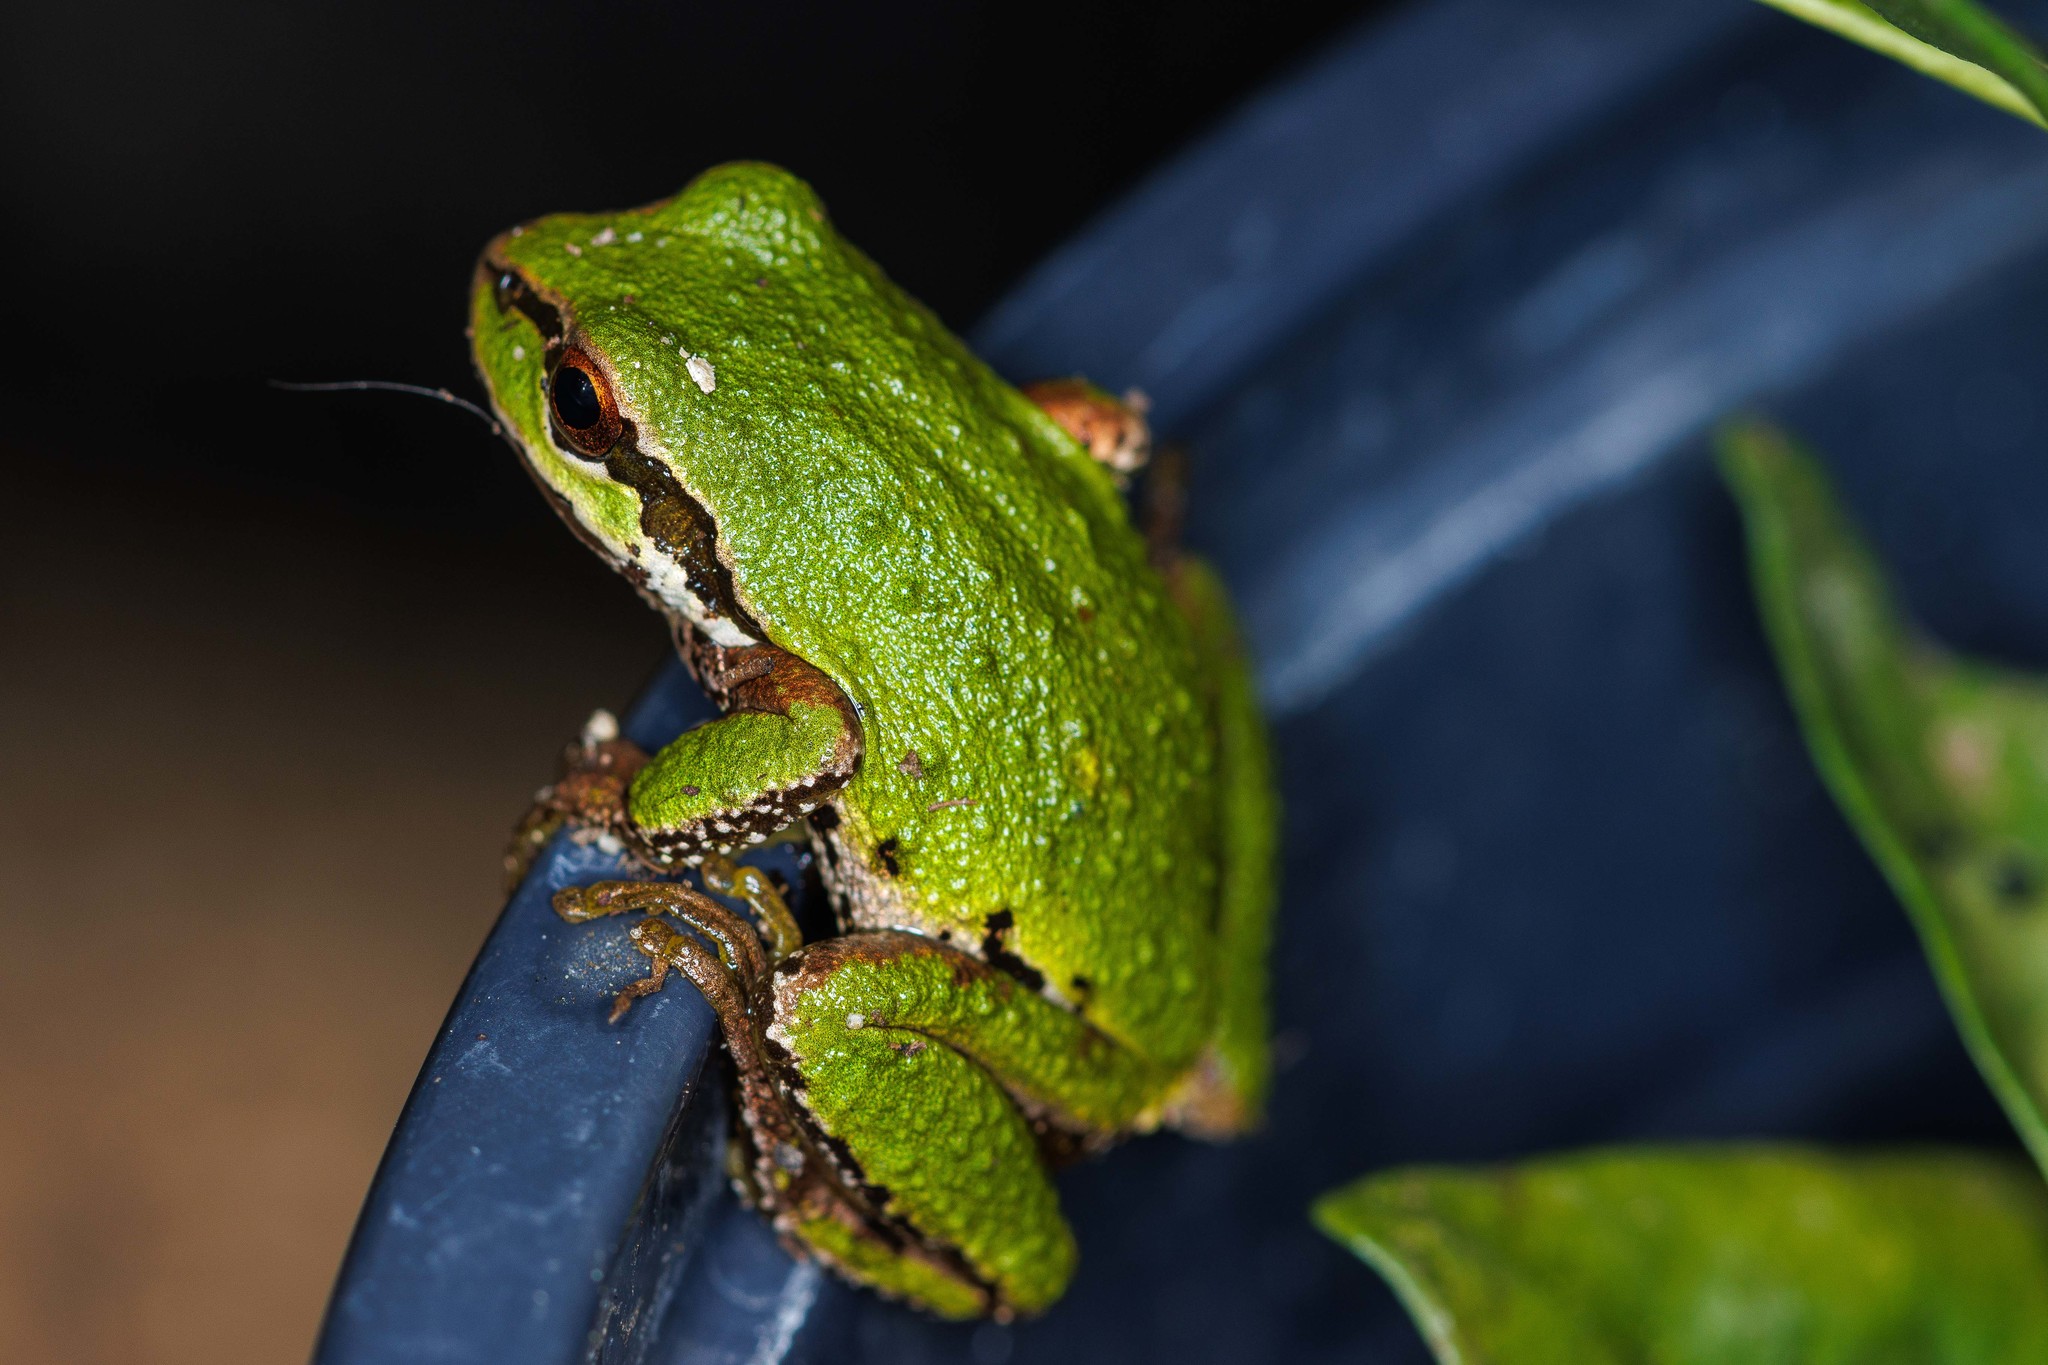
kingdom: Animalia
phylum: Chordata
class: Amphibia
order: Anura
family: Hylidae
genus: Pseudacris
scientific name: Pseudacris regilla
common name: Pacific chorus frog
